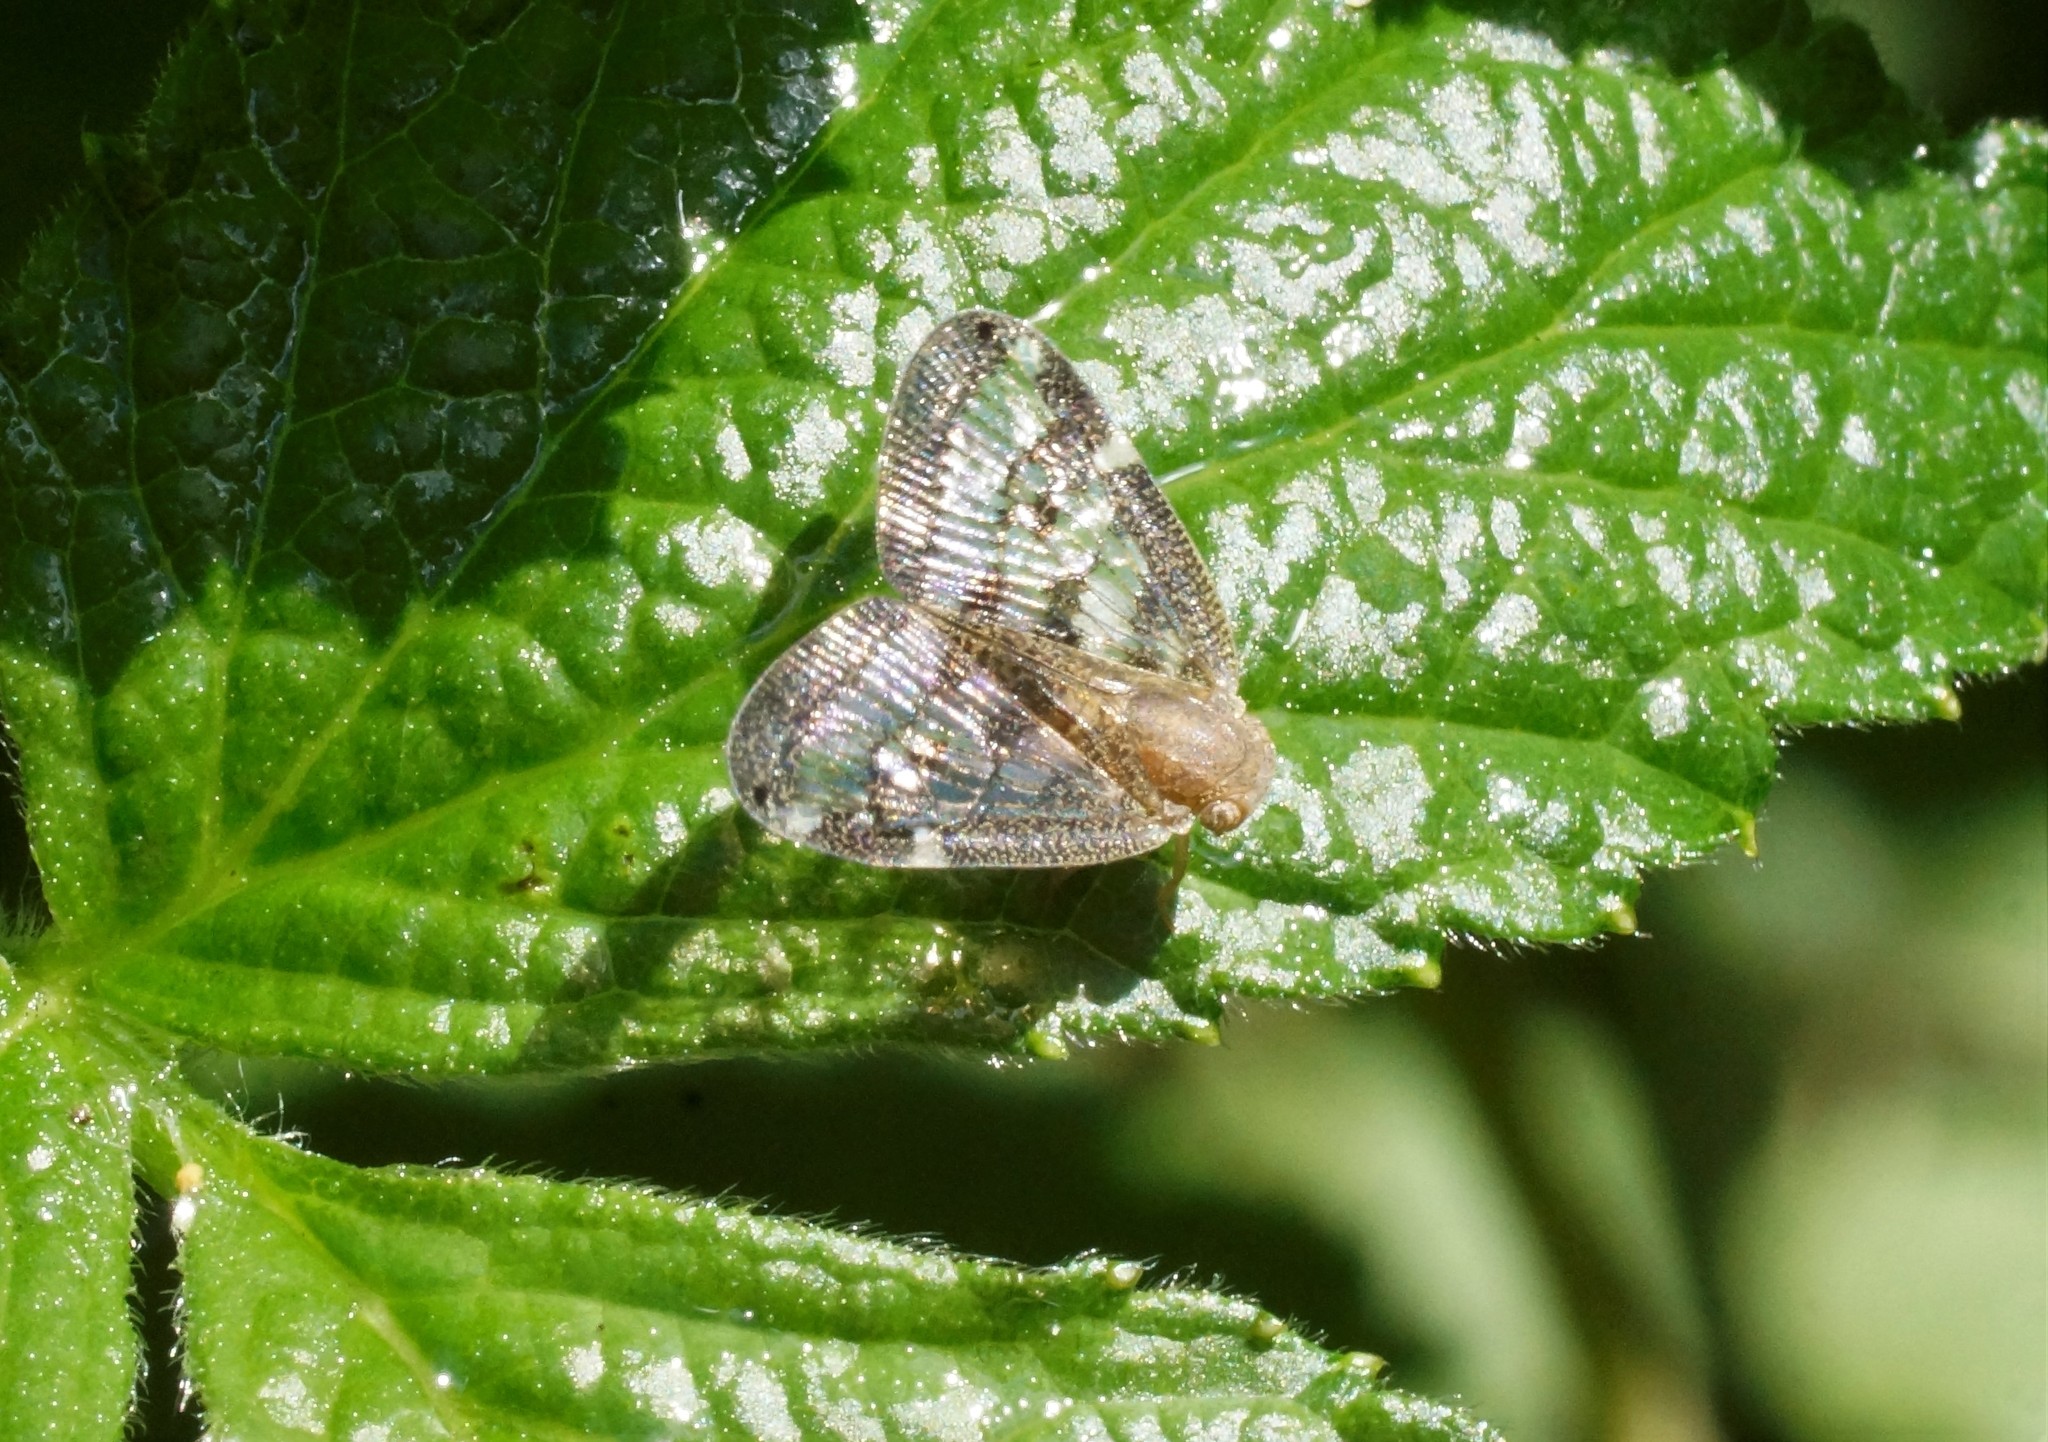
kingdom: Animalia
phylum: Arthropoda
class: Insecta
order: Hemiptera
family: Ricaniidae
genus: Scolypopa
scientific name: Scolypopa australis
